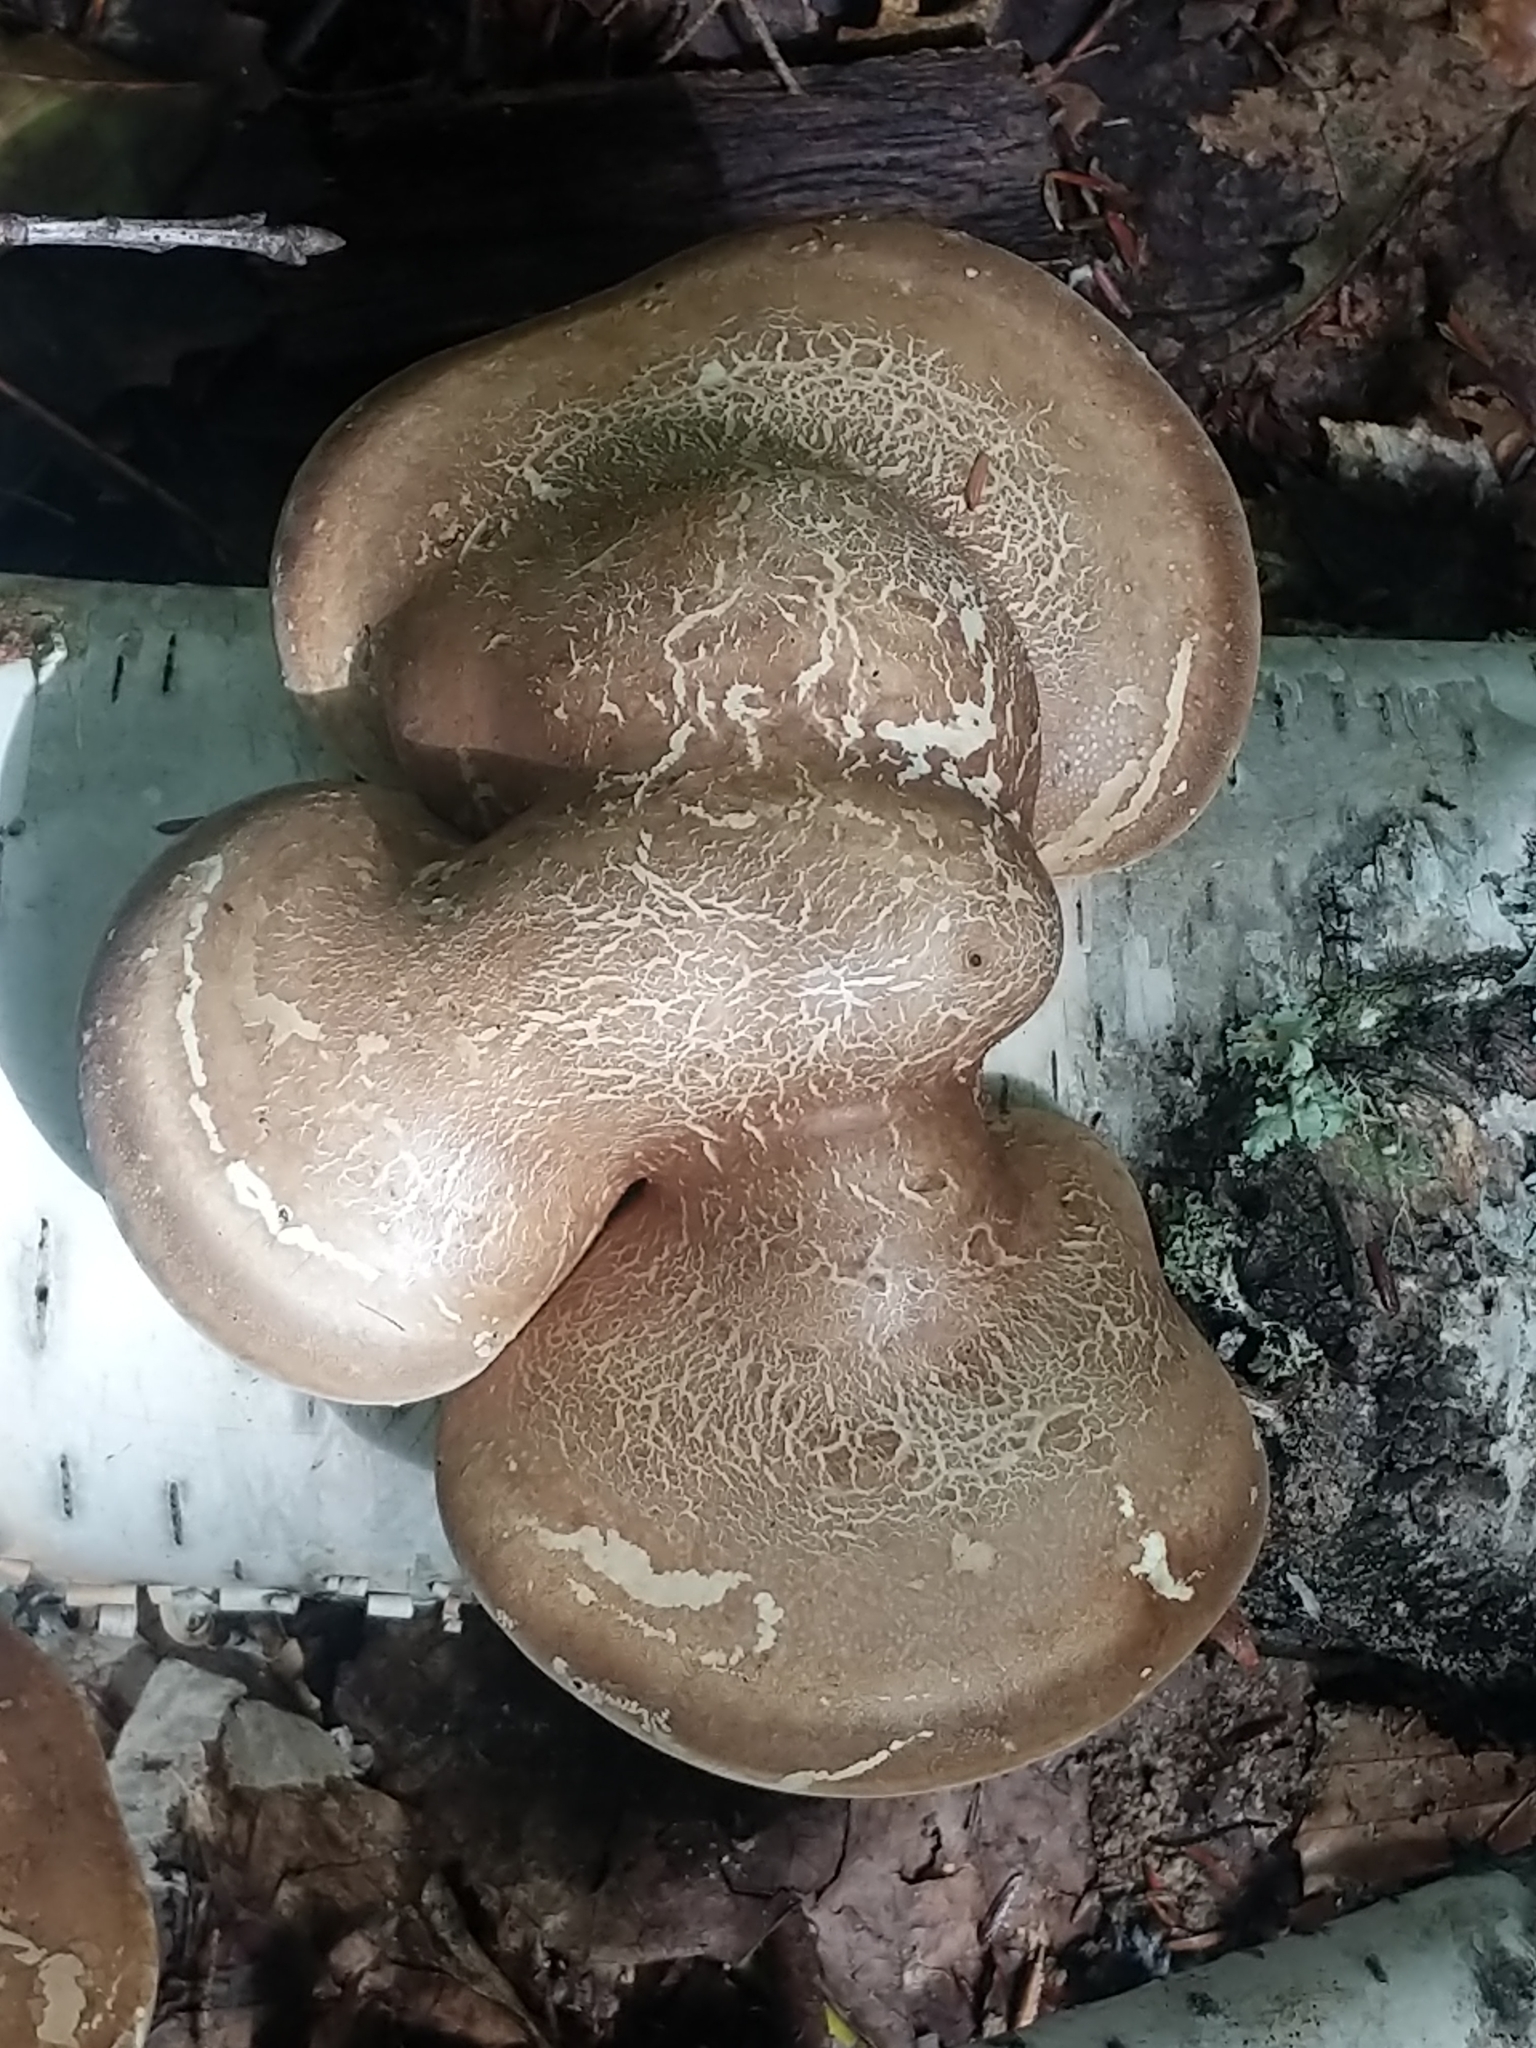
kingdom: Fungi
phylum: Basidiomycota
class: Agaricomycetes
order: Polyporales
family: Fomitopsidaceae
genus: Fomitopsis
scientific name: Fomitopsis betulina
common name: Birch polypore
